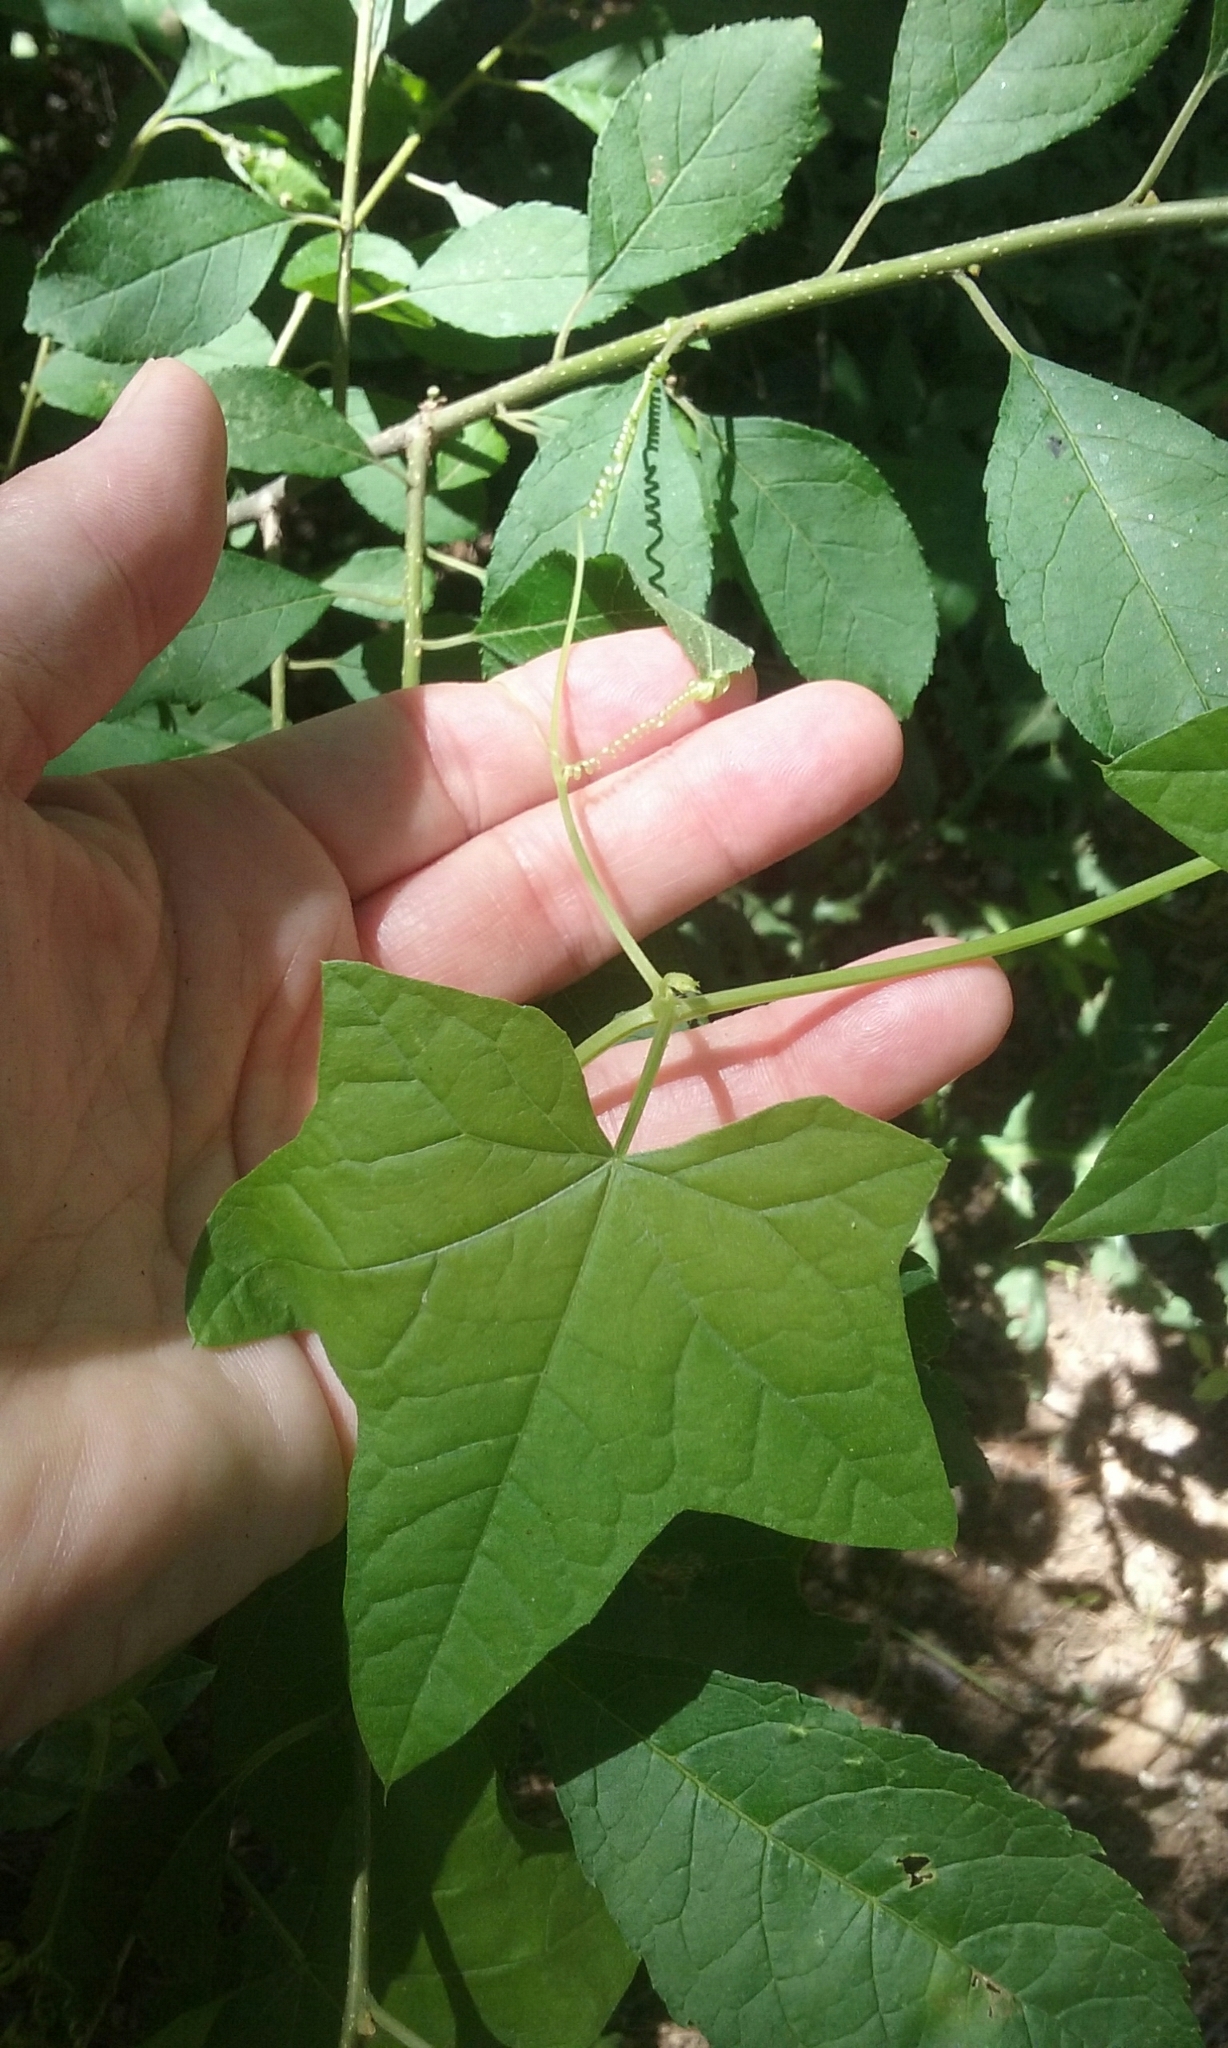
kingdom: Plantae
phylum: Tracheophyta
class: Magnoliopsida
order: Cucurbitales
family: Cucurbitaceae
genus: Echinocystis
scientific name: Echinocystis lobata
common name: Wild cucumber
